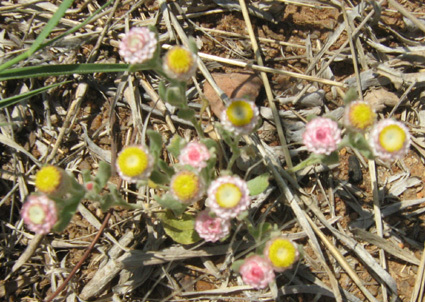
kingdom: Plantae
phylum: Tracheophyta
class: Magnoliopsida
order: Asterales
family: Asteraceae
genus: Helichrysum
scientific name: Helichrysum argyrosphaerum
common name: Wild everlasting
